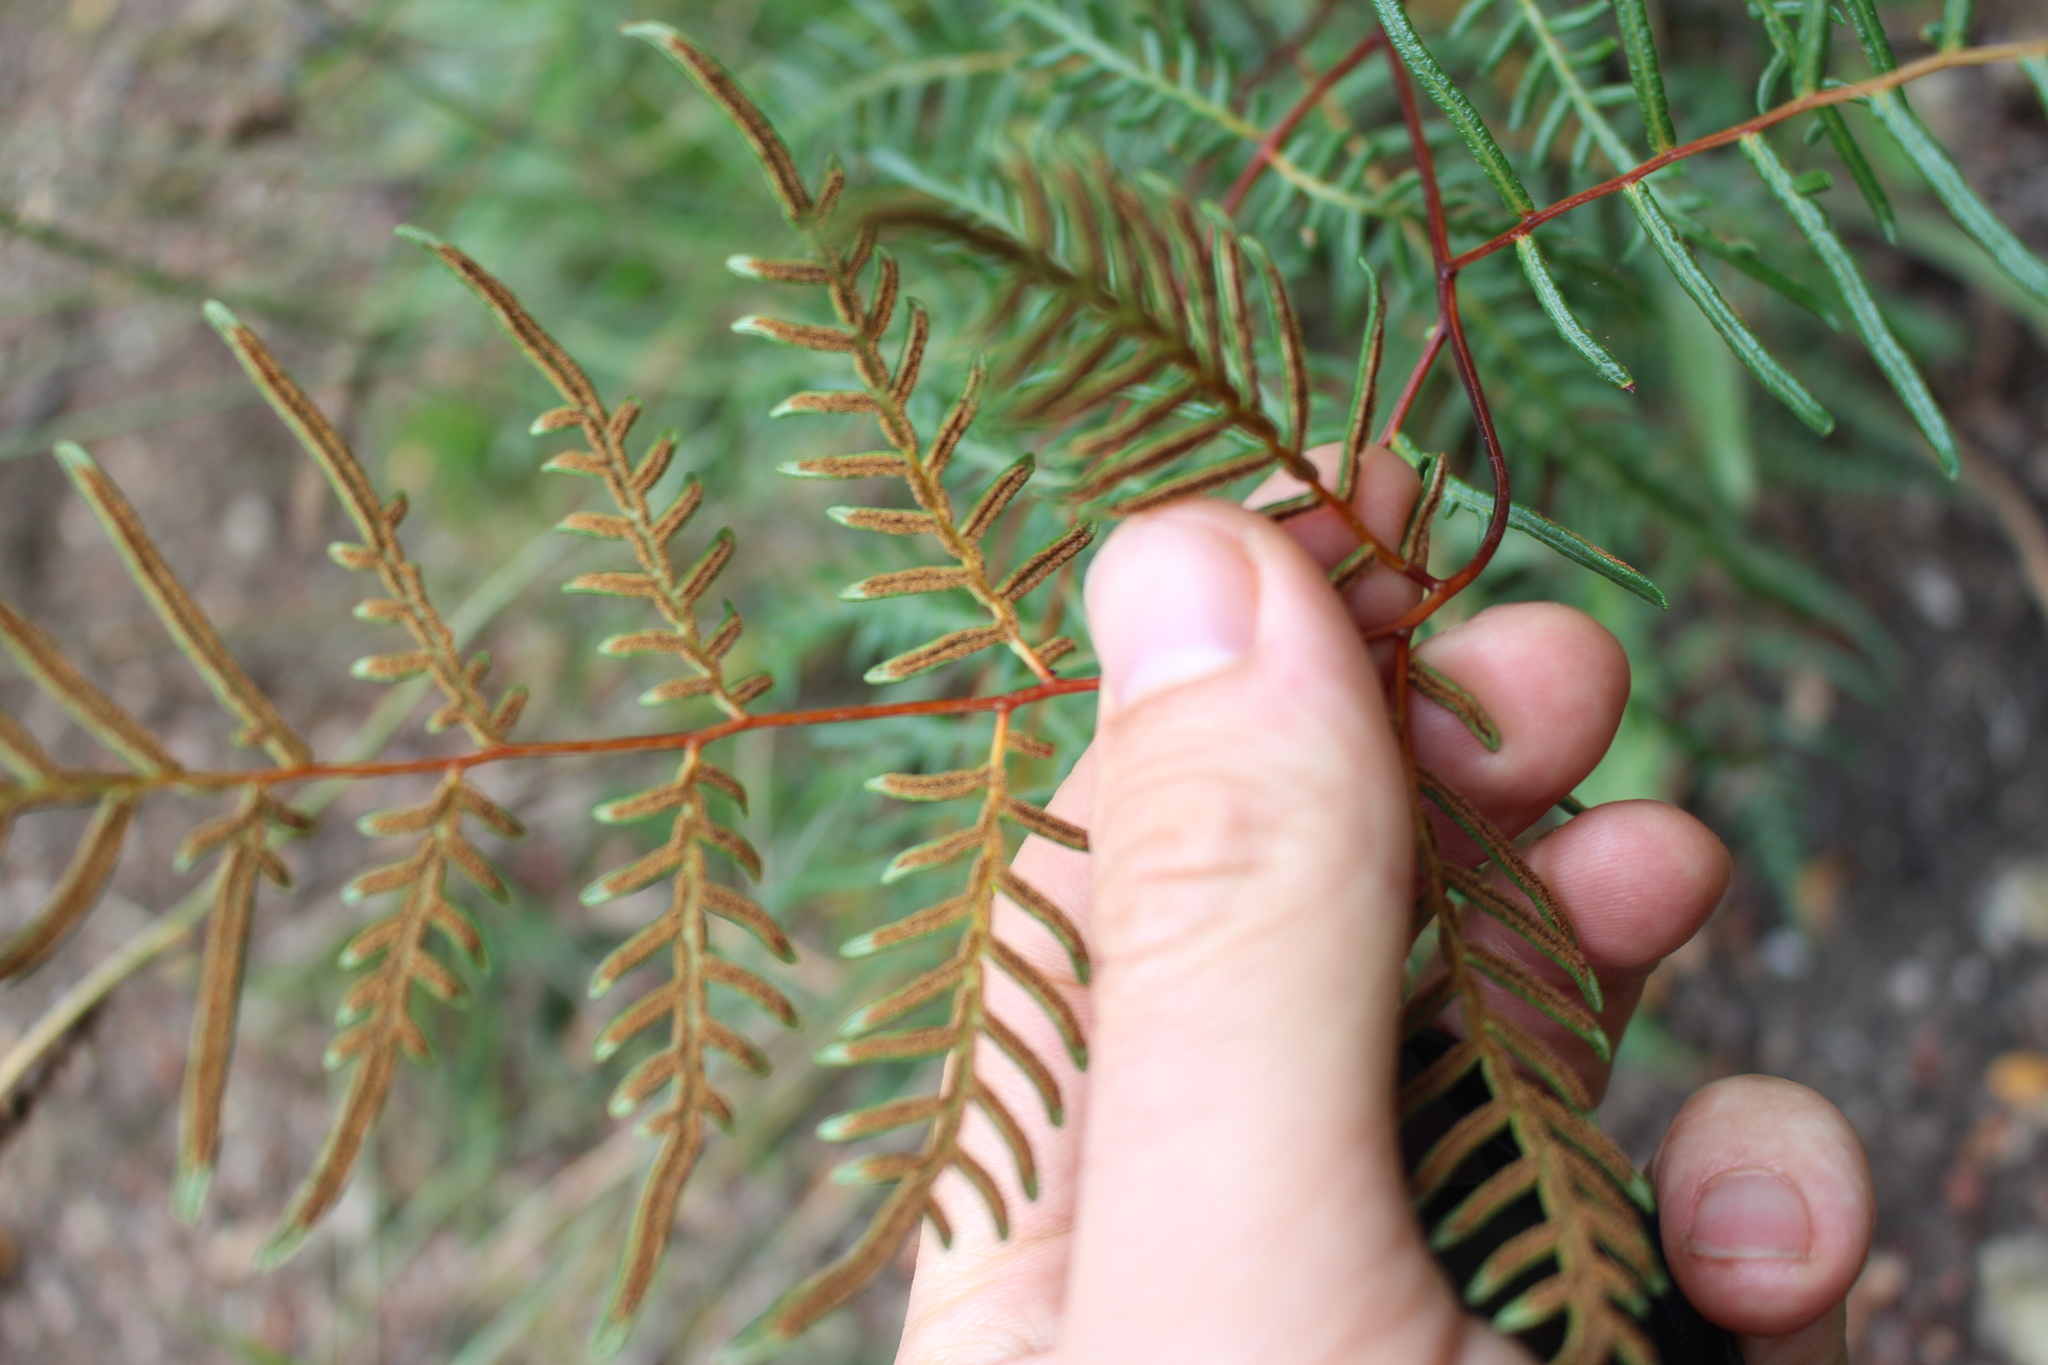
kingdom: Plantae
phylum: Tracheophyta
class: Polypodiopsida
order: Polypodiales
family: Dennstaedtiaceae
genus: Pteridium
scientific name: Pteridium esculentum
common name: Bracken fern
